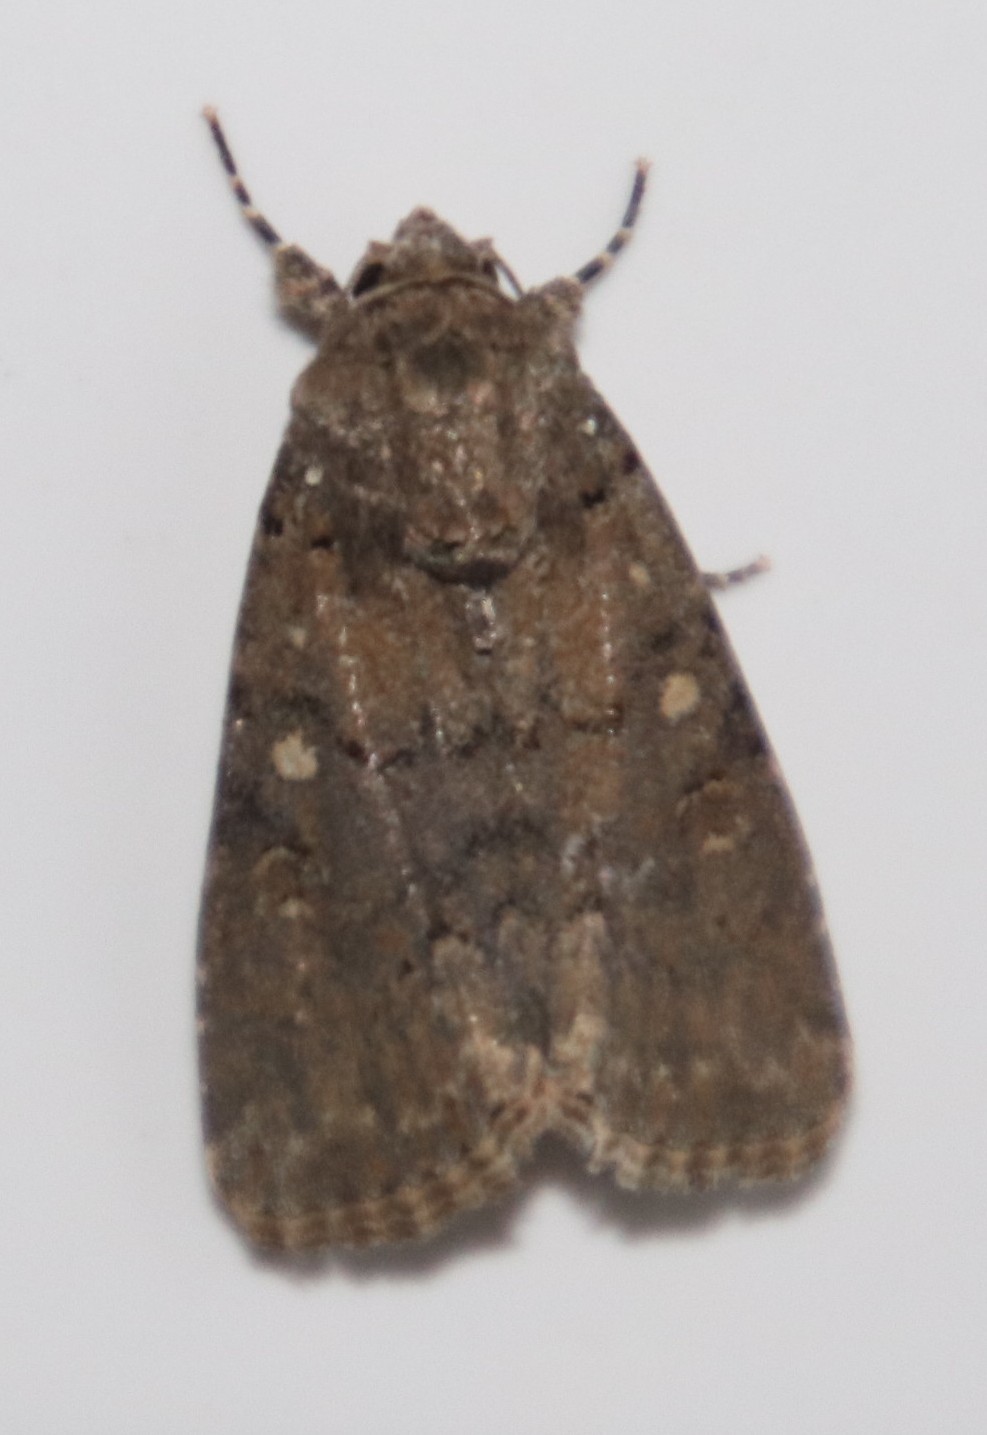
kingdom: Animalia
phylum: Arthropoda
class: Insecta
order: Lepidoptera
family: Noctuidae
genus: Spodoptera
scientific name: Spodoptera cilium
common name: Dark mottled willow
